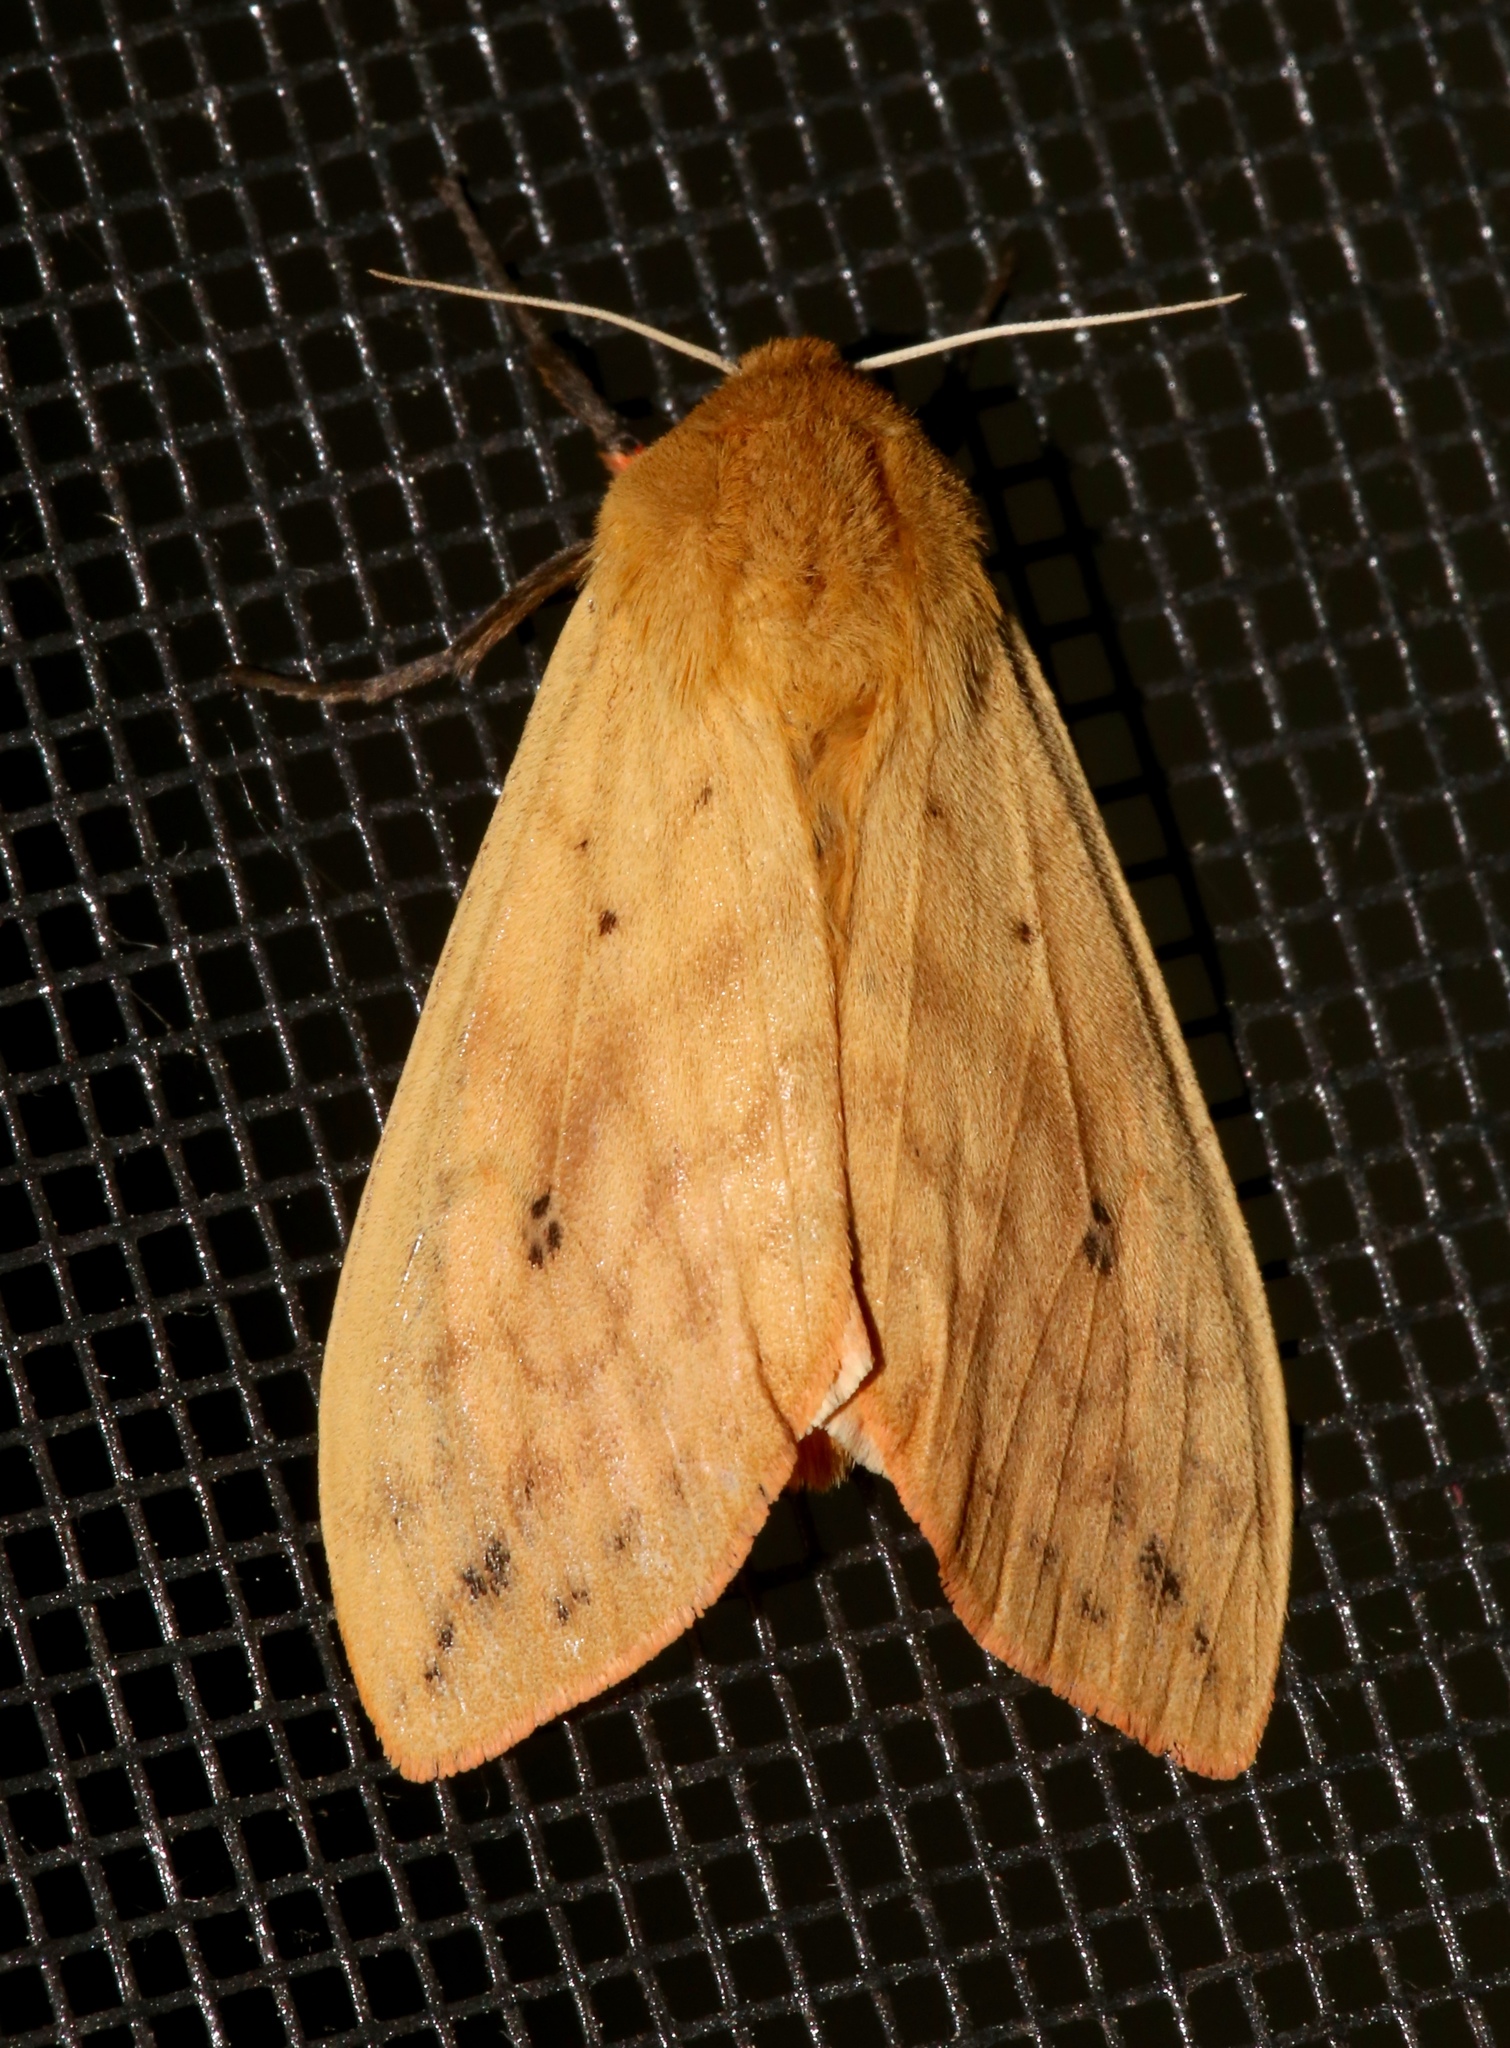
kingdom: Animalia
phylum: Arthropoda
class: Insecta
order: Lepidoptera
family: Erebidae
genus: Pyrrharctia
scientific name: Pyrrharctia isabella
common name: Isabella tiger moth
